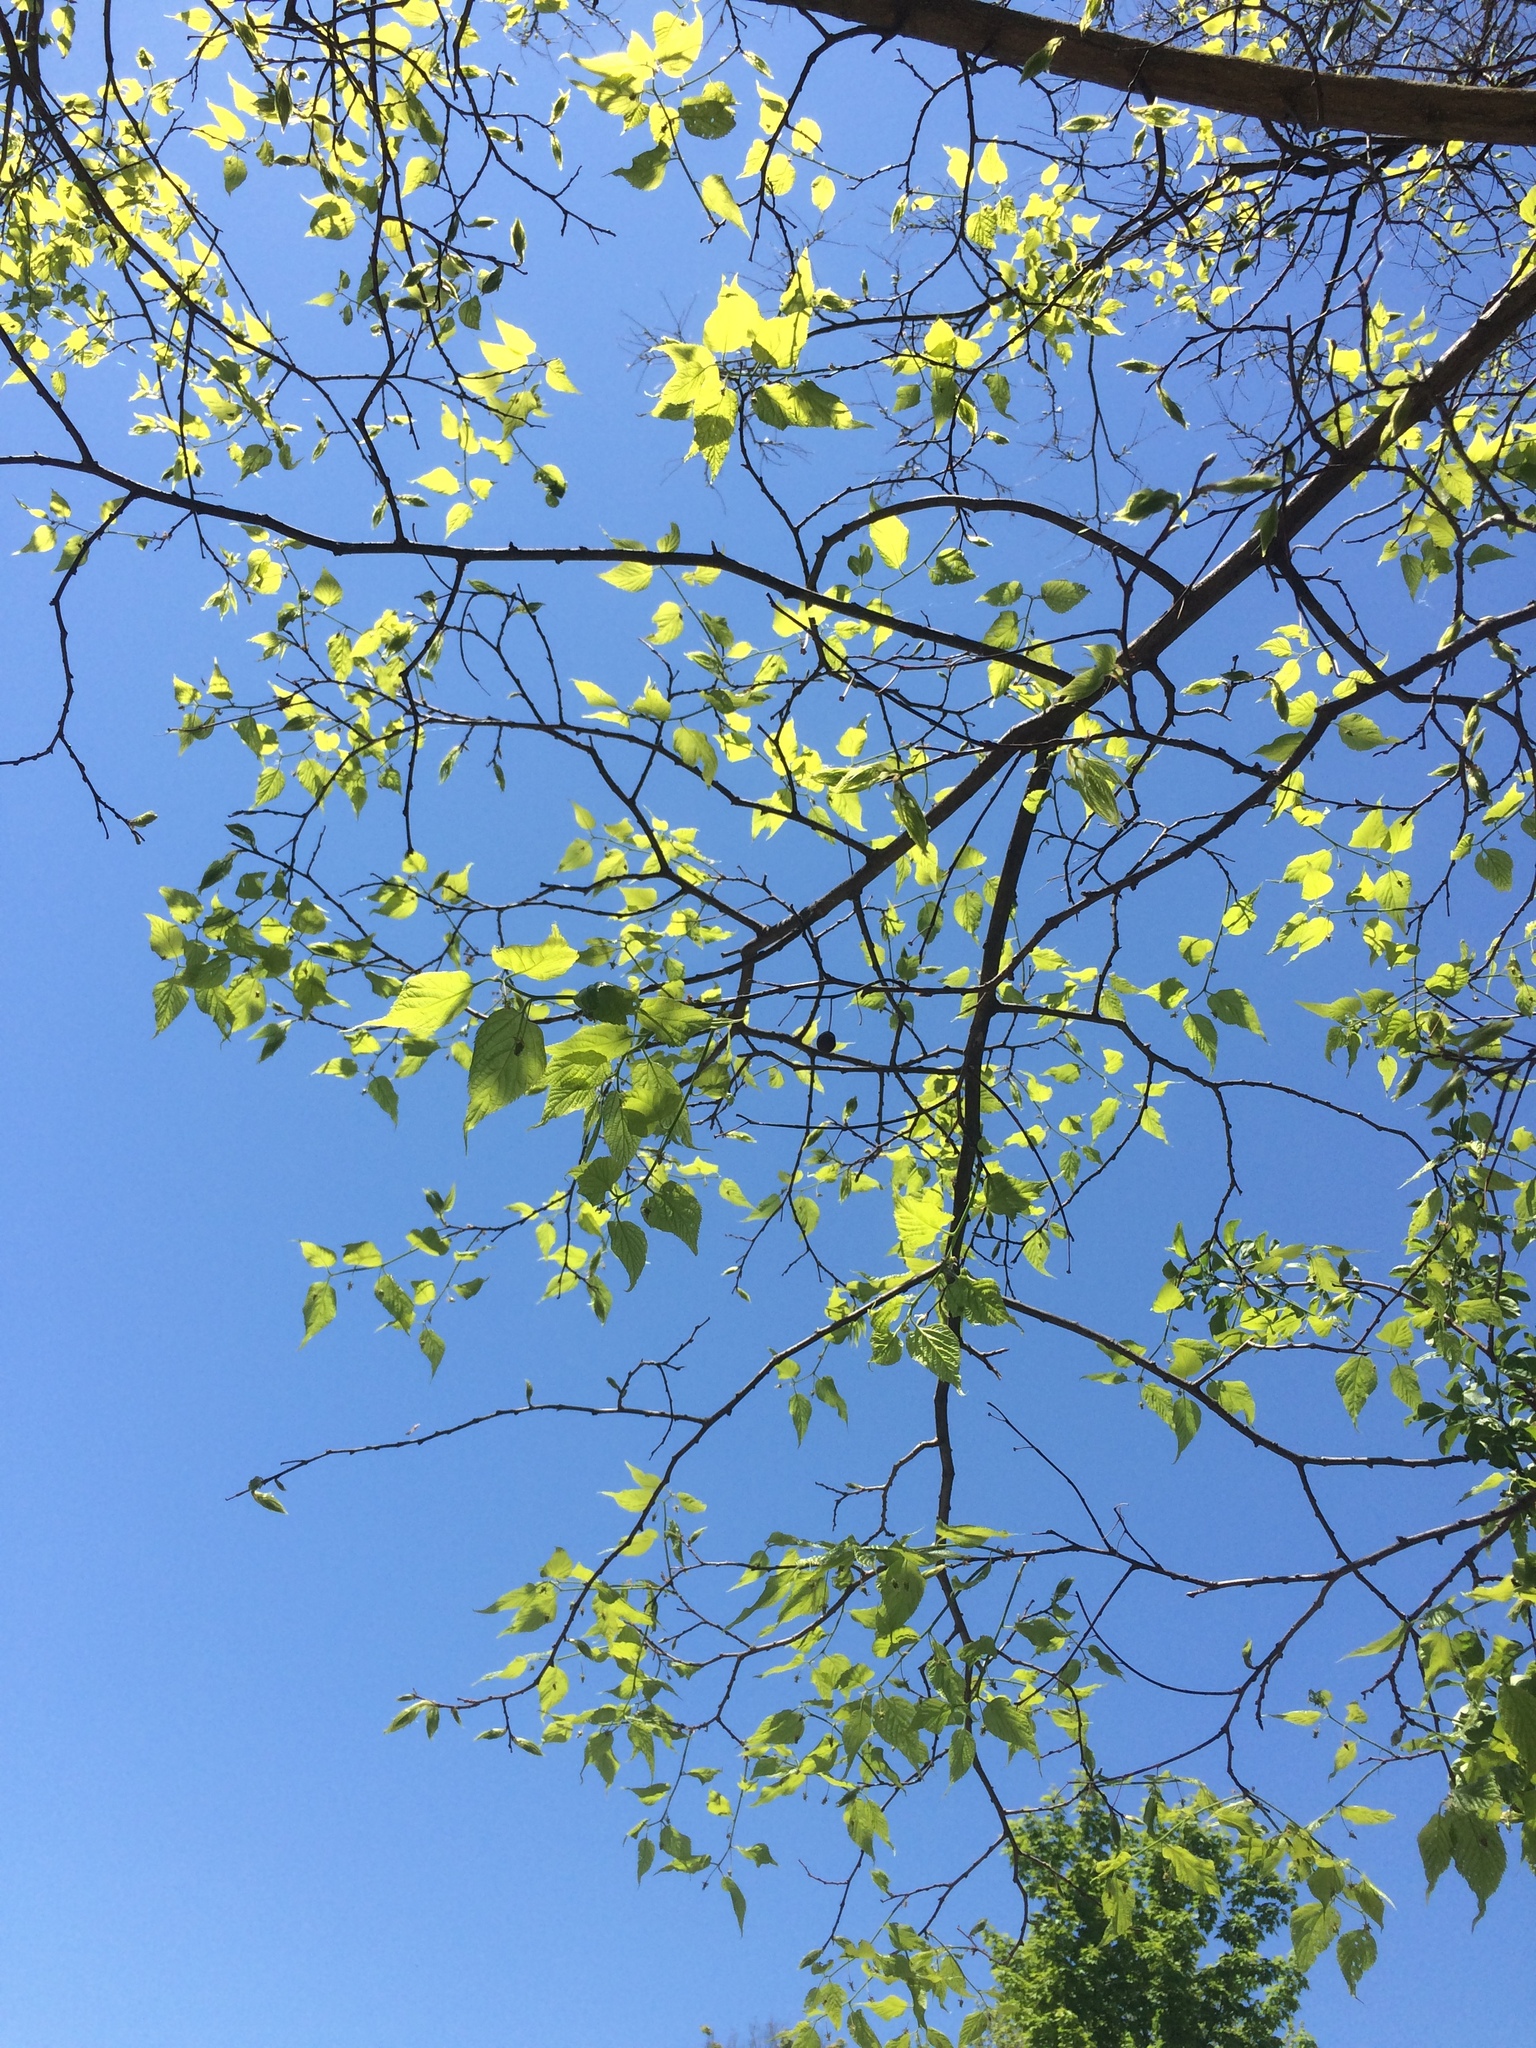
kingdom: Plantae
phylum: Tracheophyta
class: Magnoliopsida
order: Rosales
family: Cannabaceae
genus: Celtis
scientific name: Celtis occidentalis
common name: Common hackberry
